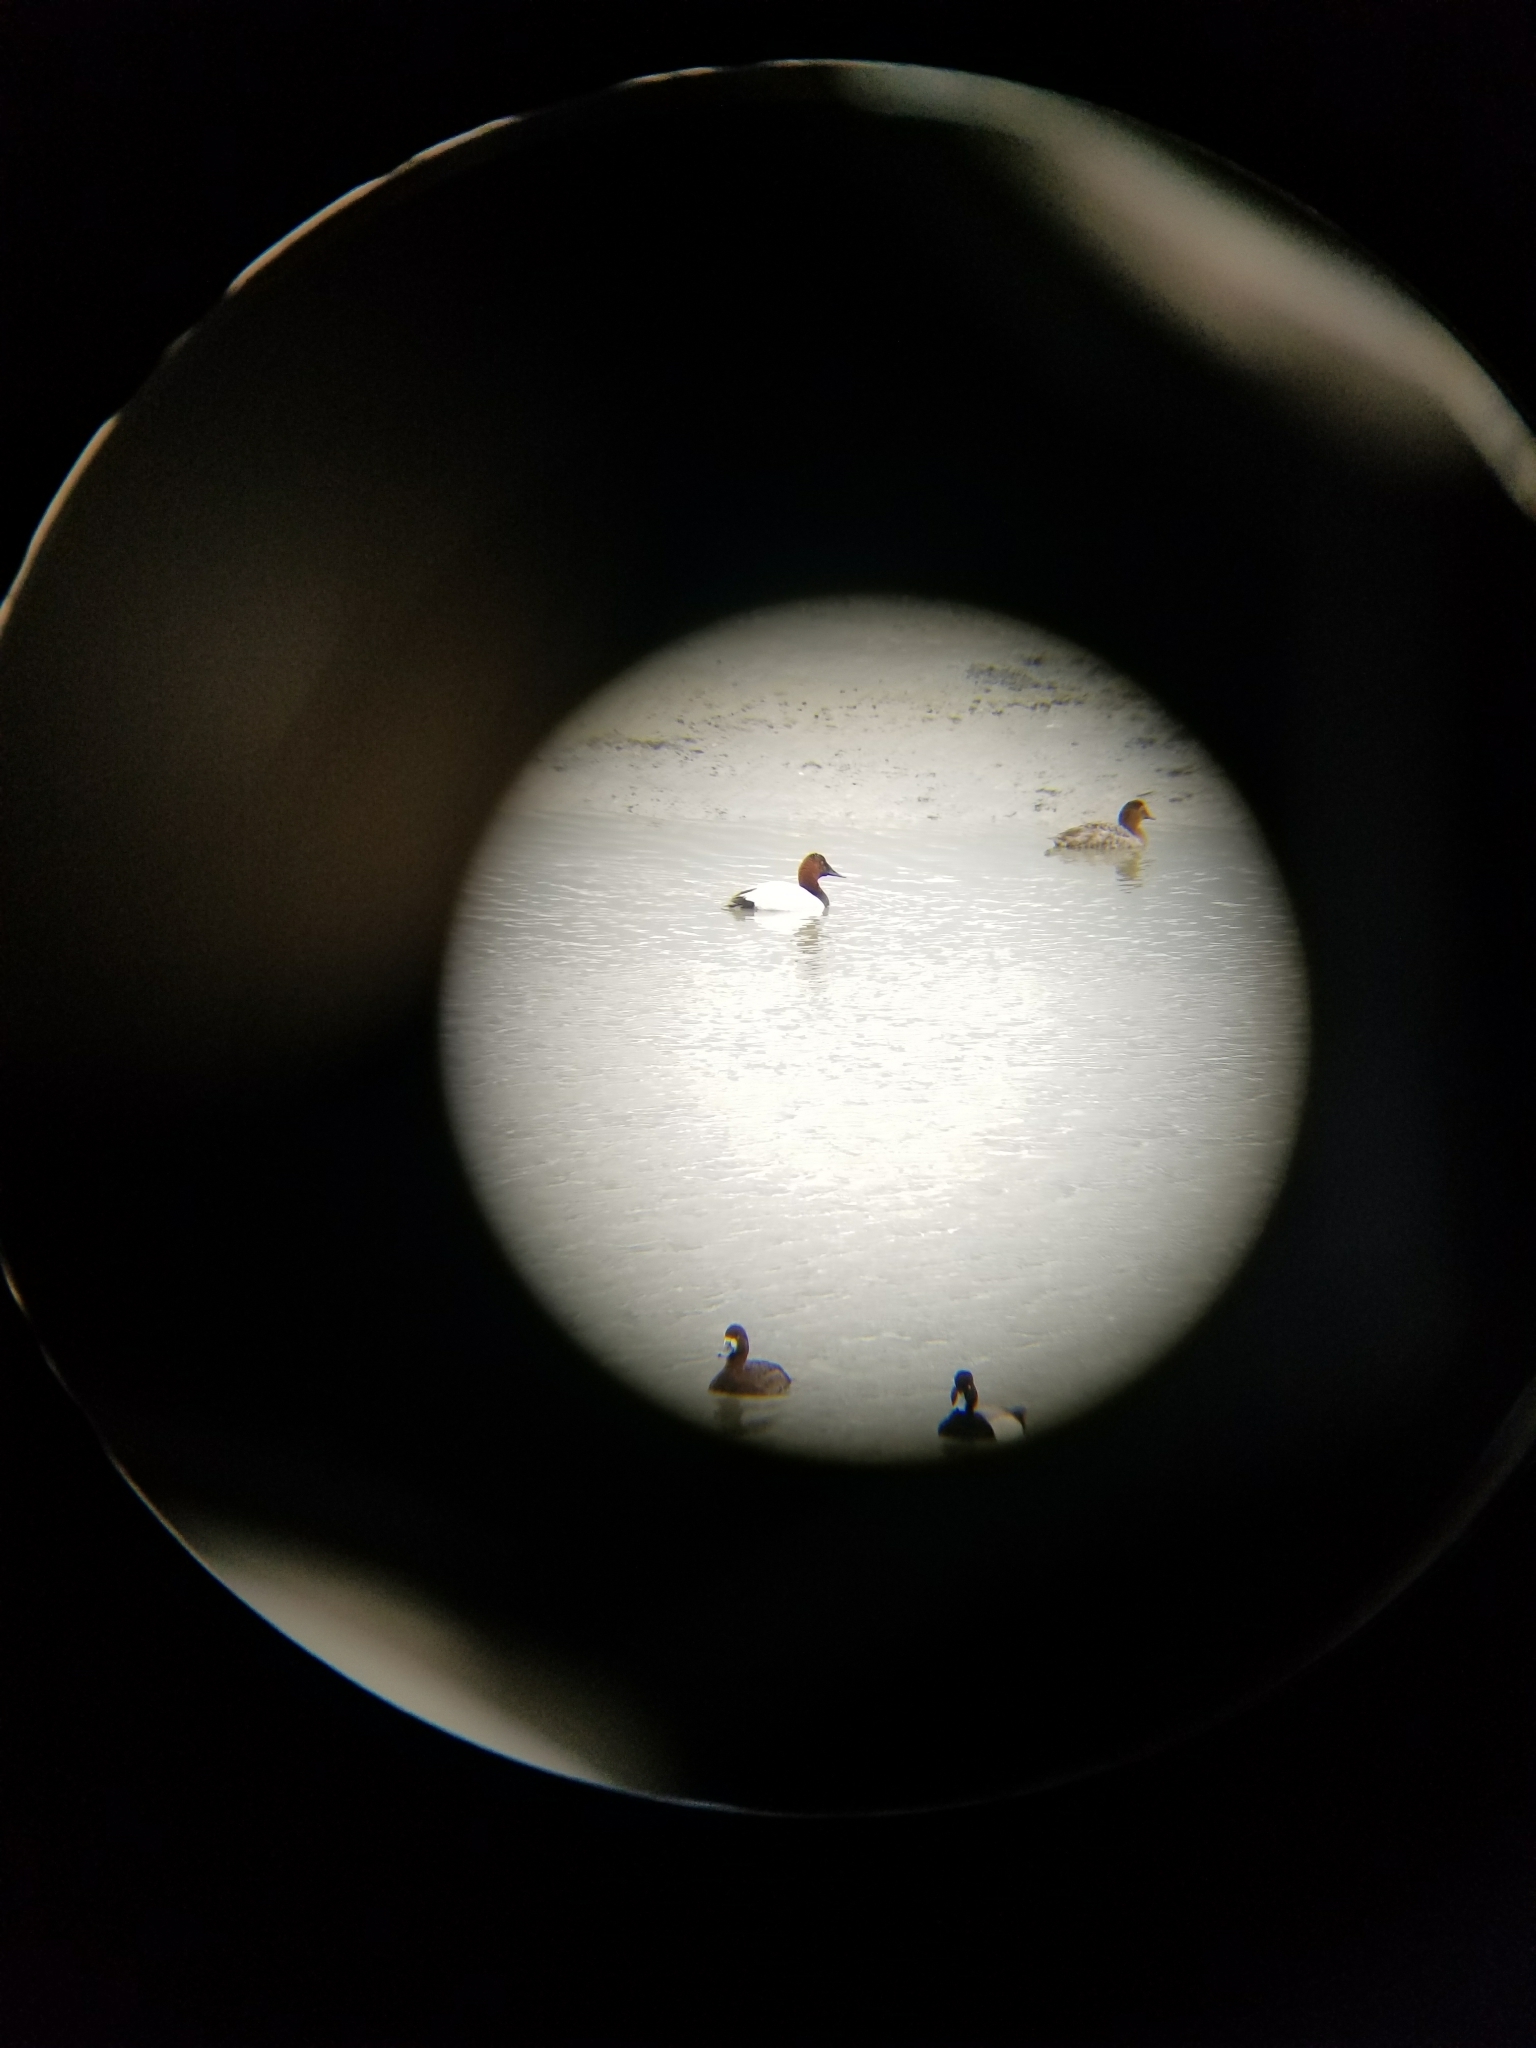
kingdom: Animalia
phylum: Chordata
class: Aves
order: Anseriformes
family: Anatidae
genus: Aythya
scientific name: Aythya valisineria
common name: Canvasback
